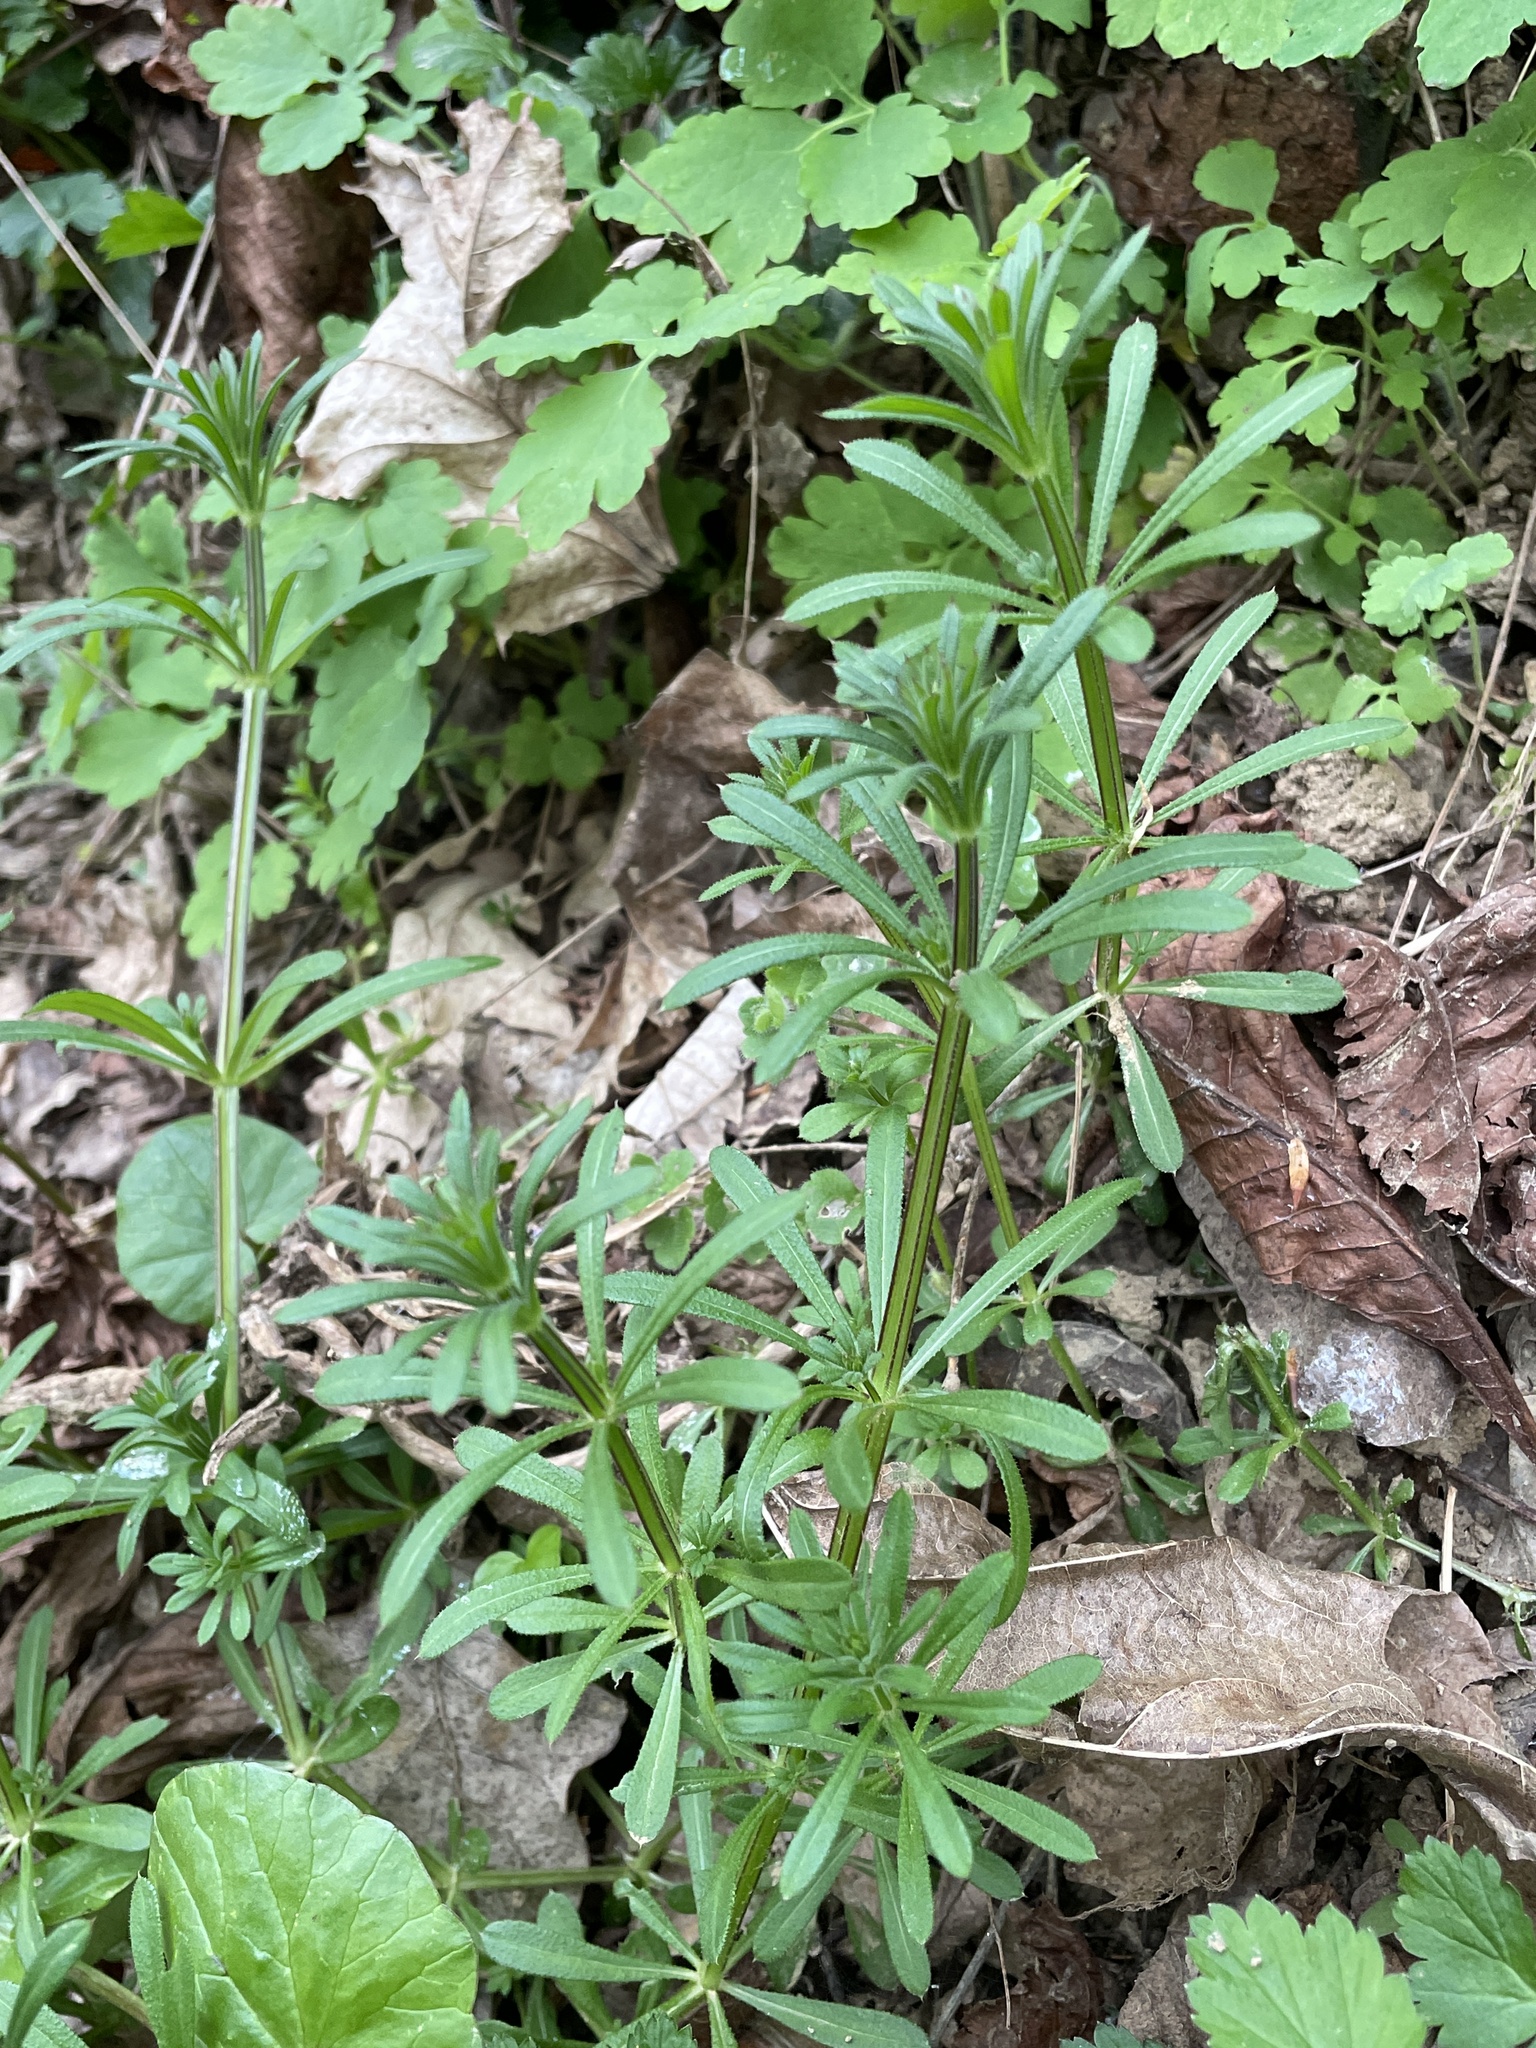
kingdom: Plantae
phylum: Tracheophyta
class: Magnoliopsida
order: Gentianales
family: Rubiaceae
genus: Galium
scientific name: Galium aparine
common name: Cleavers
